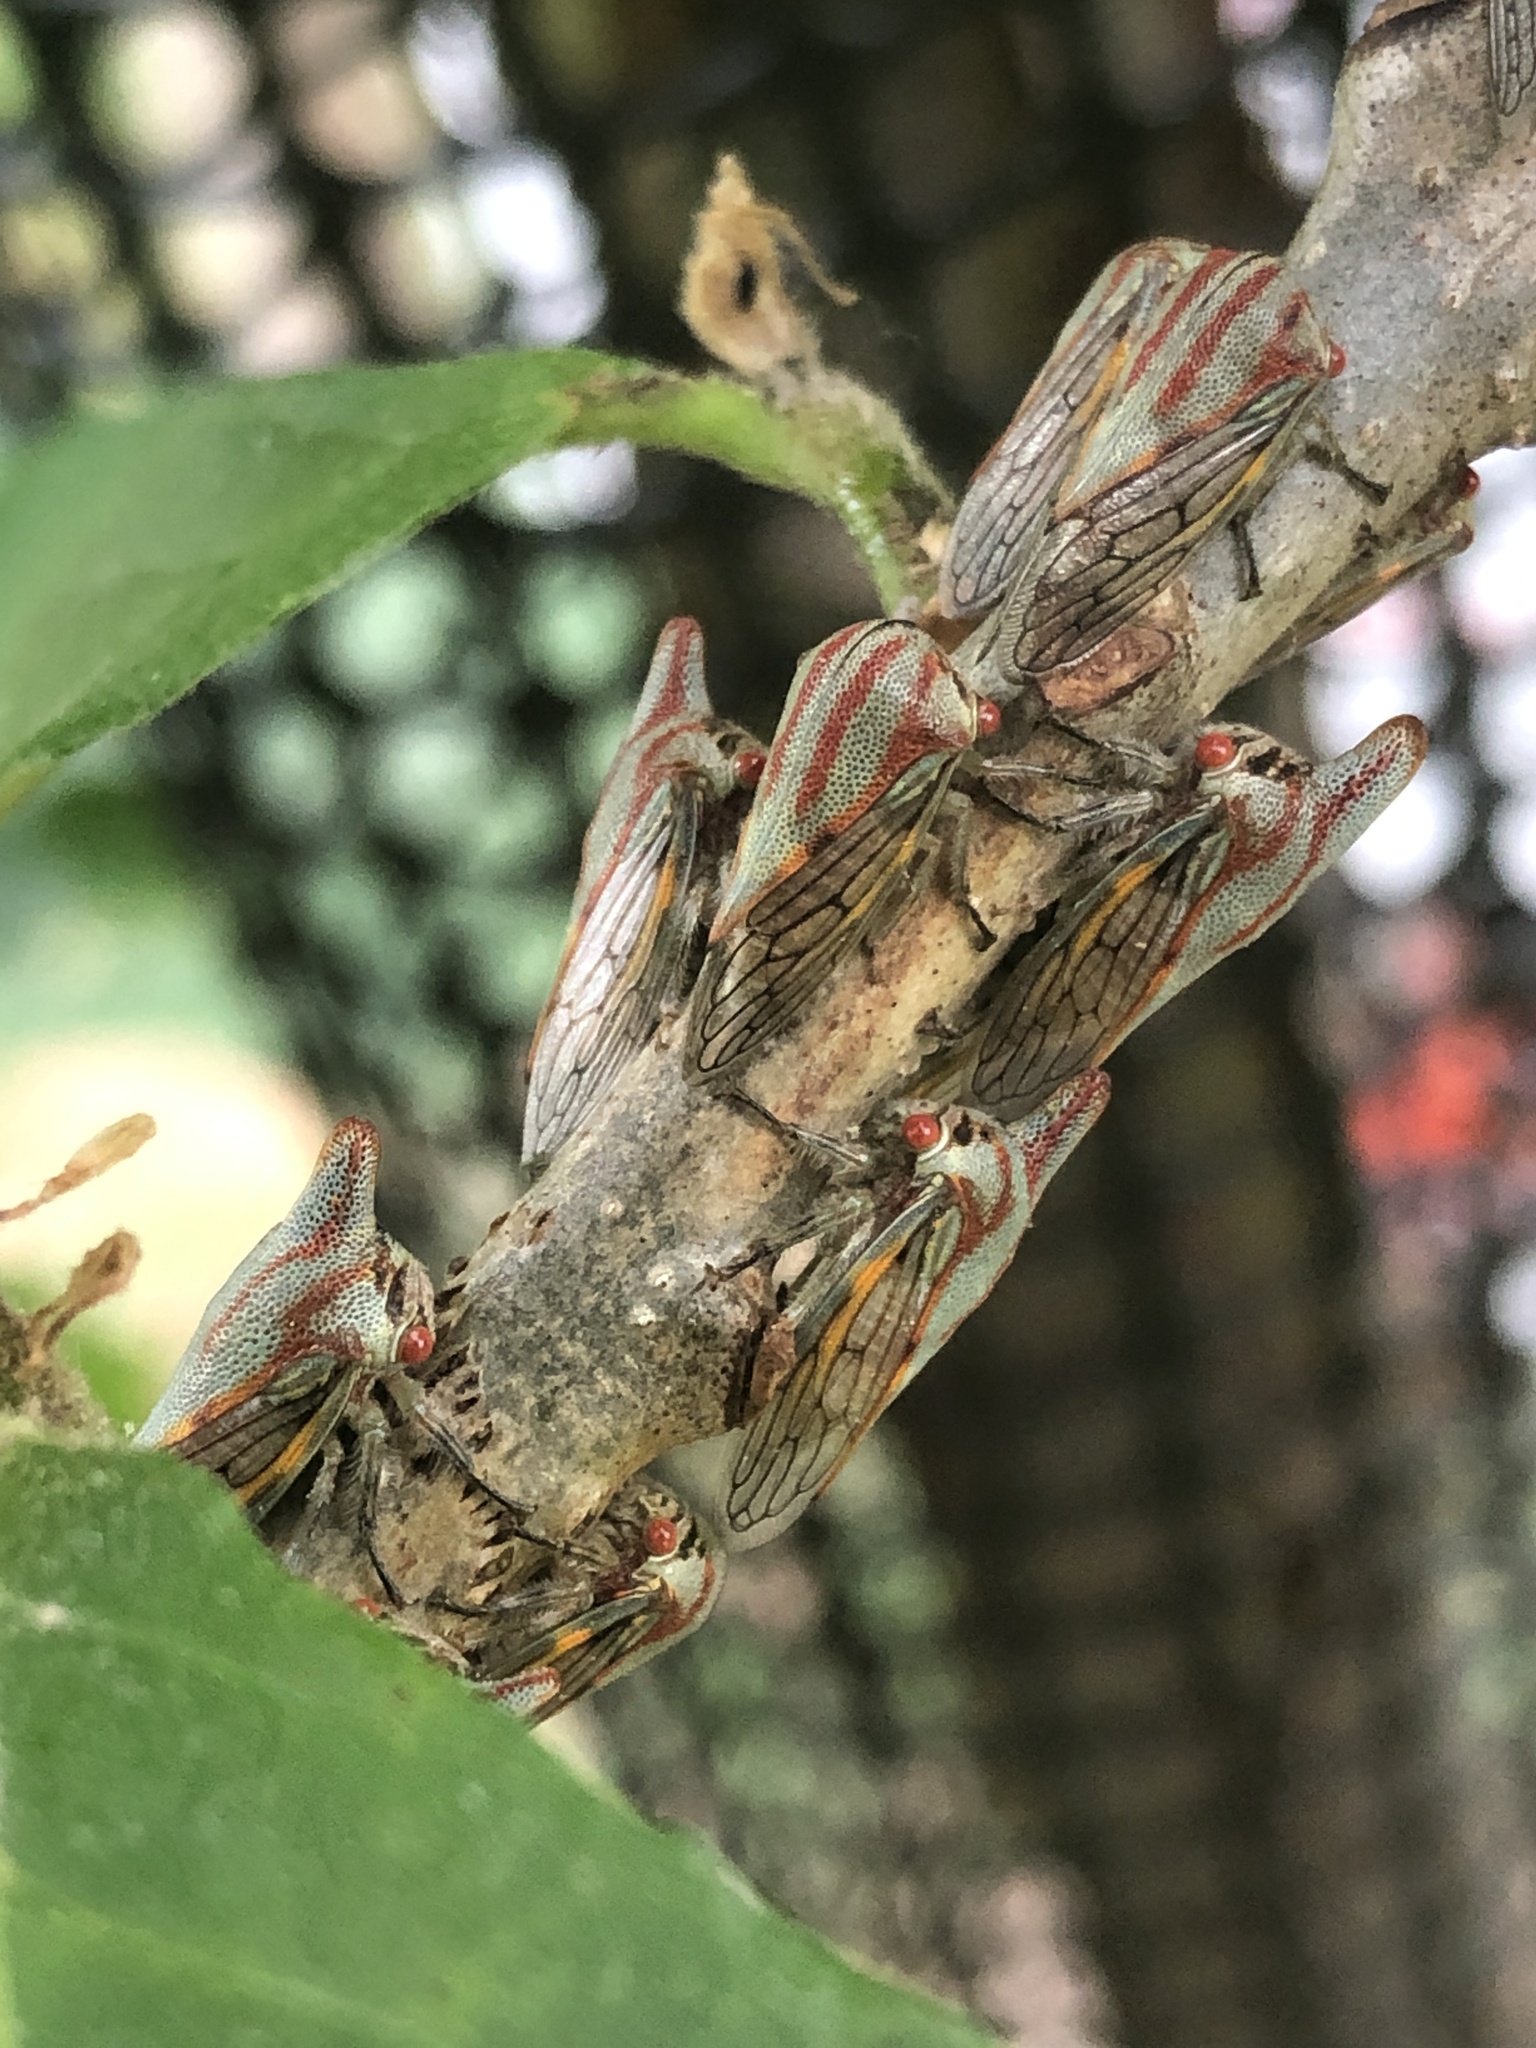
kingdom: Animalia
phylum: Arthropoda
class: Insecta
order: Hemiptera
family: Membracidae
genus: Platycotis
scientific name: Platycotis vittatus
